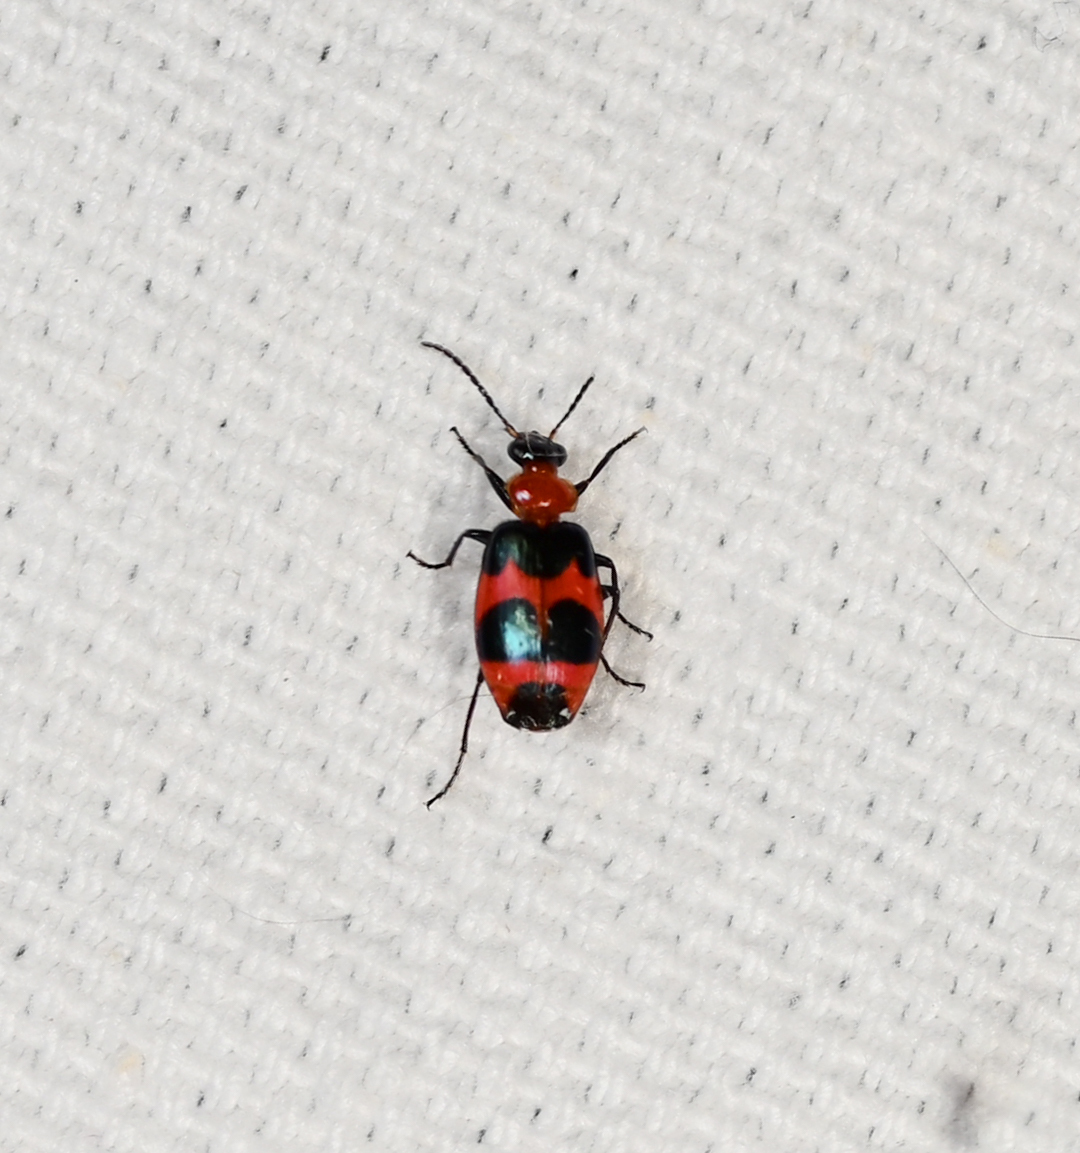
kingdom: Animalia
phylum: Arthropoda
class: Insecta
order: Coleoptera
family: Carabidae
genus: Lebia
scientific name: Lebia bitaeniata
